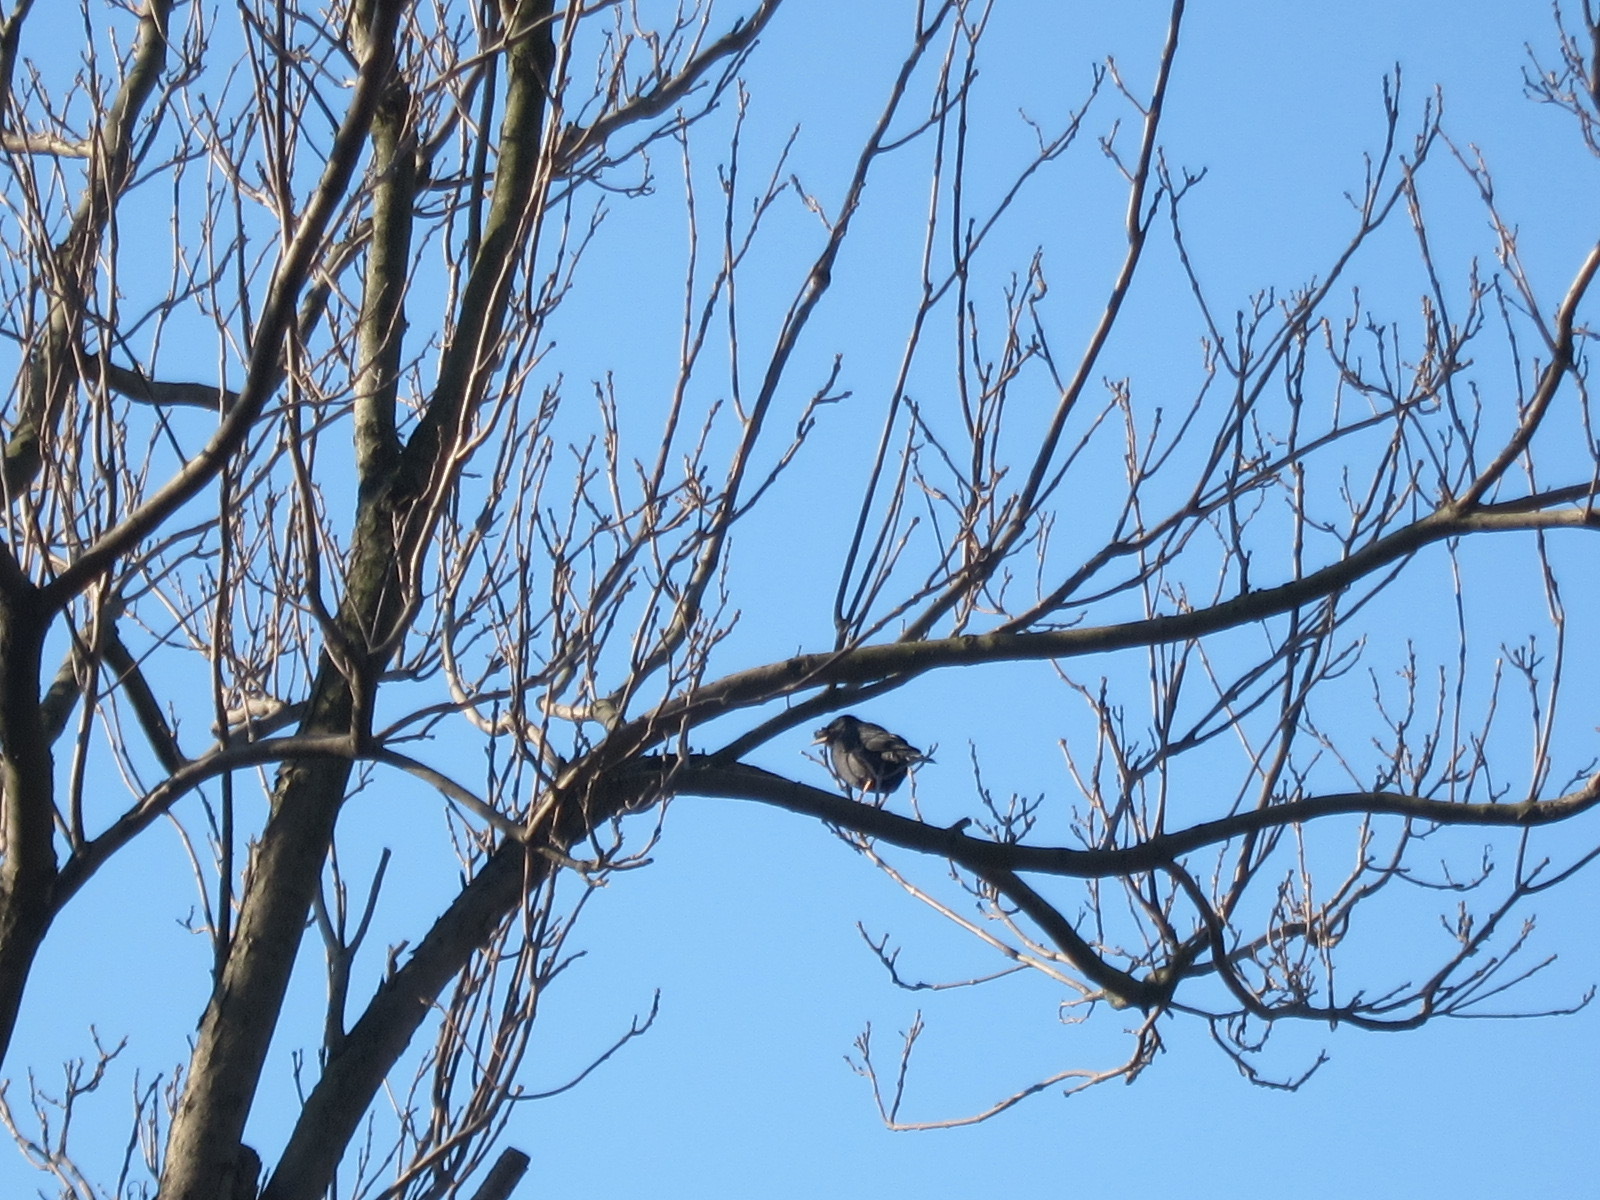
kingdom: Animalia
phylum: Chordata
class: Aves
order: Passeriformes
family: Sturnidae
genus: Acridotheres
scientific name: Acridotheres cristatellus
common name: Crested myna
